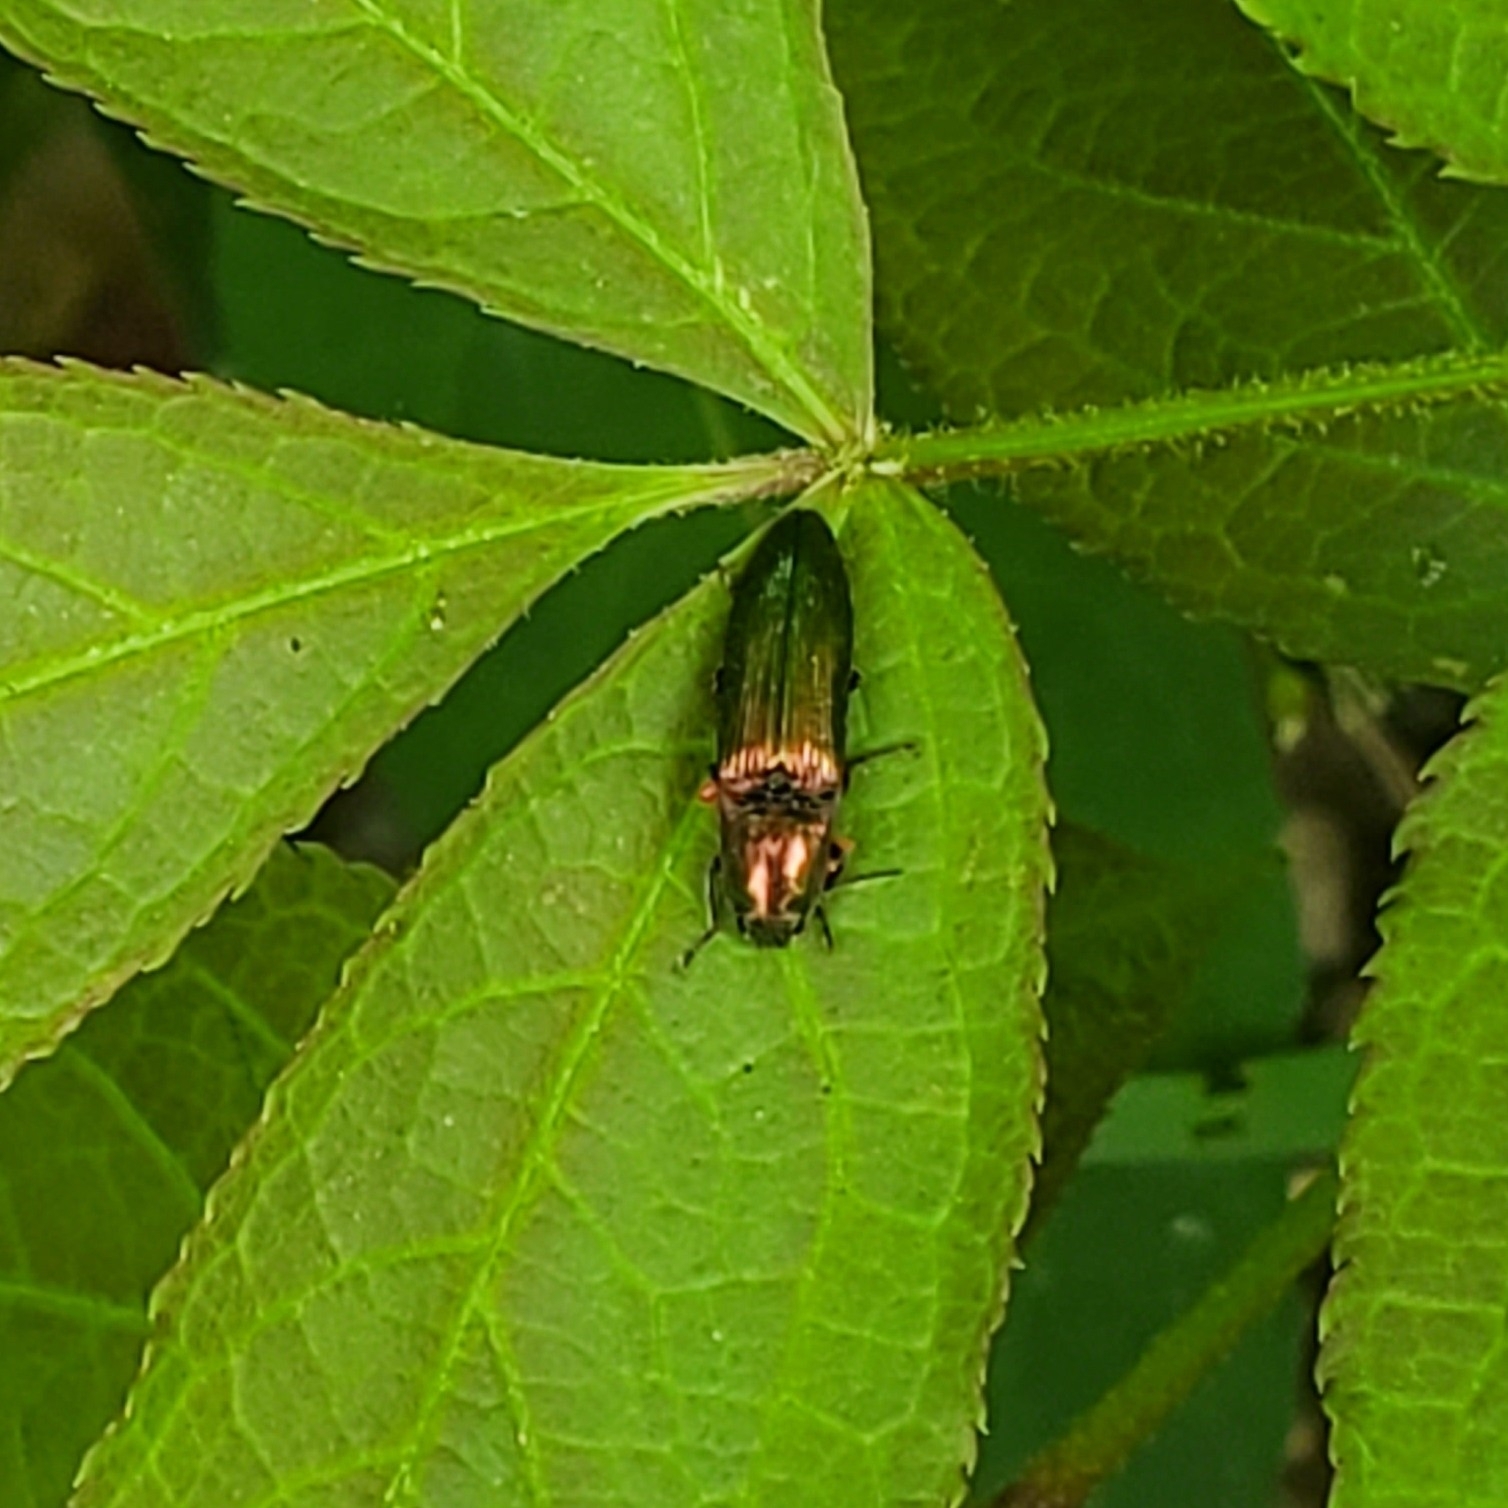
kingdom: Animalia
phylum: Arthropoda
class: Insecta
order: Coleoptera
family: Elateridae
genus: Nitidolimonius
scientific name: Nitidolimonius resplendens
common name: Resplendent click beetle
